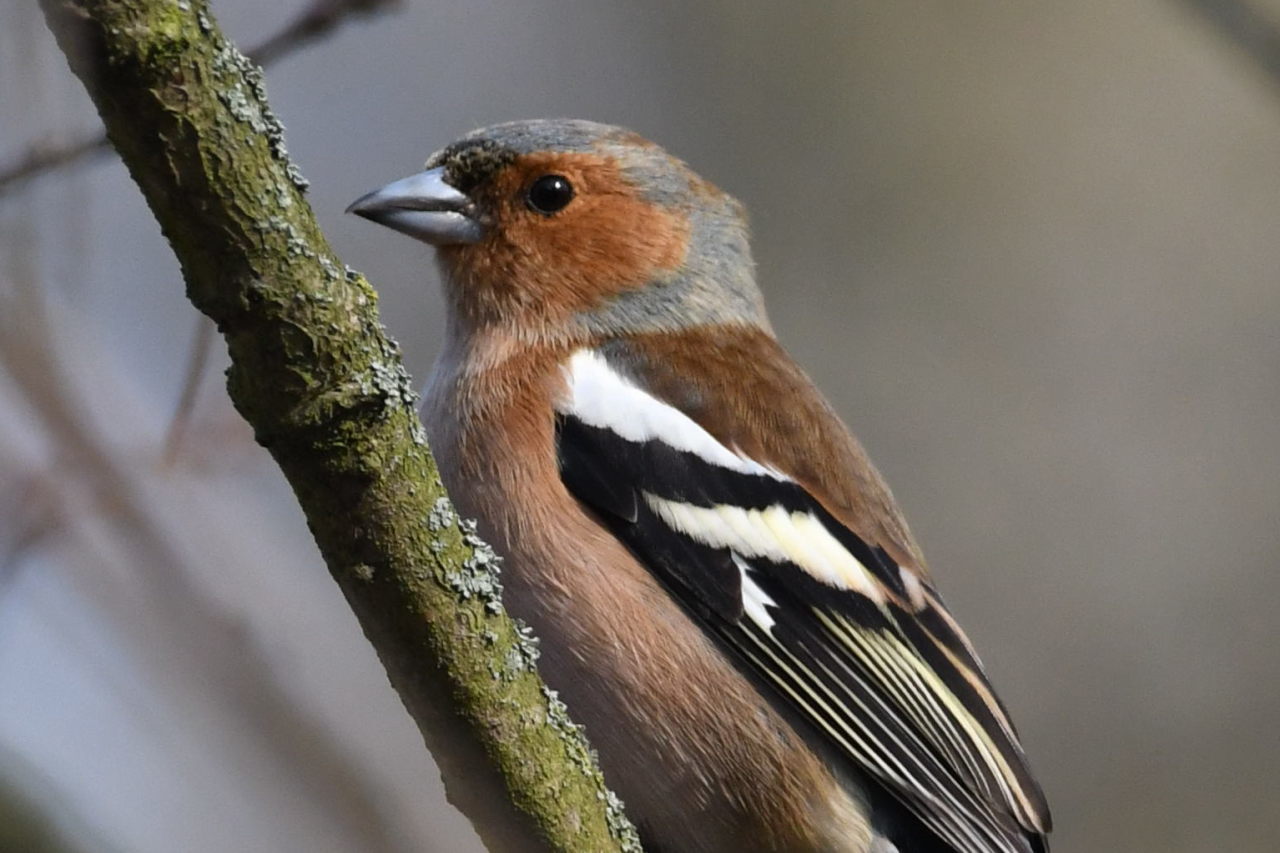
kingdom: Animalia
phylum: Chordata
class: Aves
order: Passeriformes
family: Fringillidae
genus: Fringilla
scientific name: Fringilla coelebs
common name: Common chaffinch
